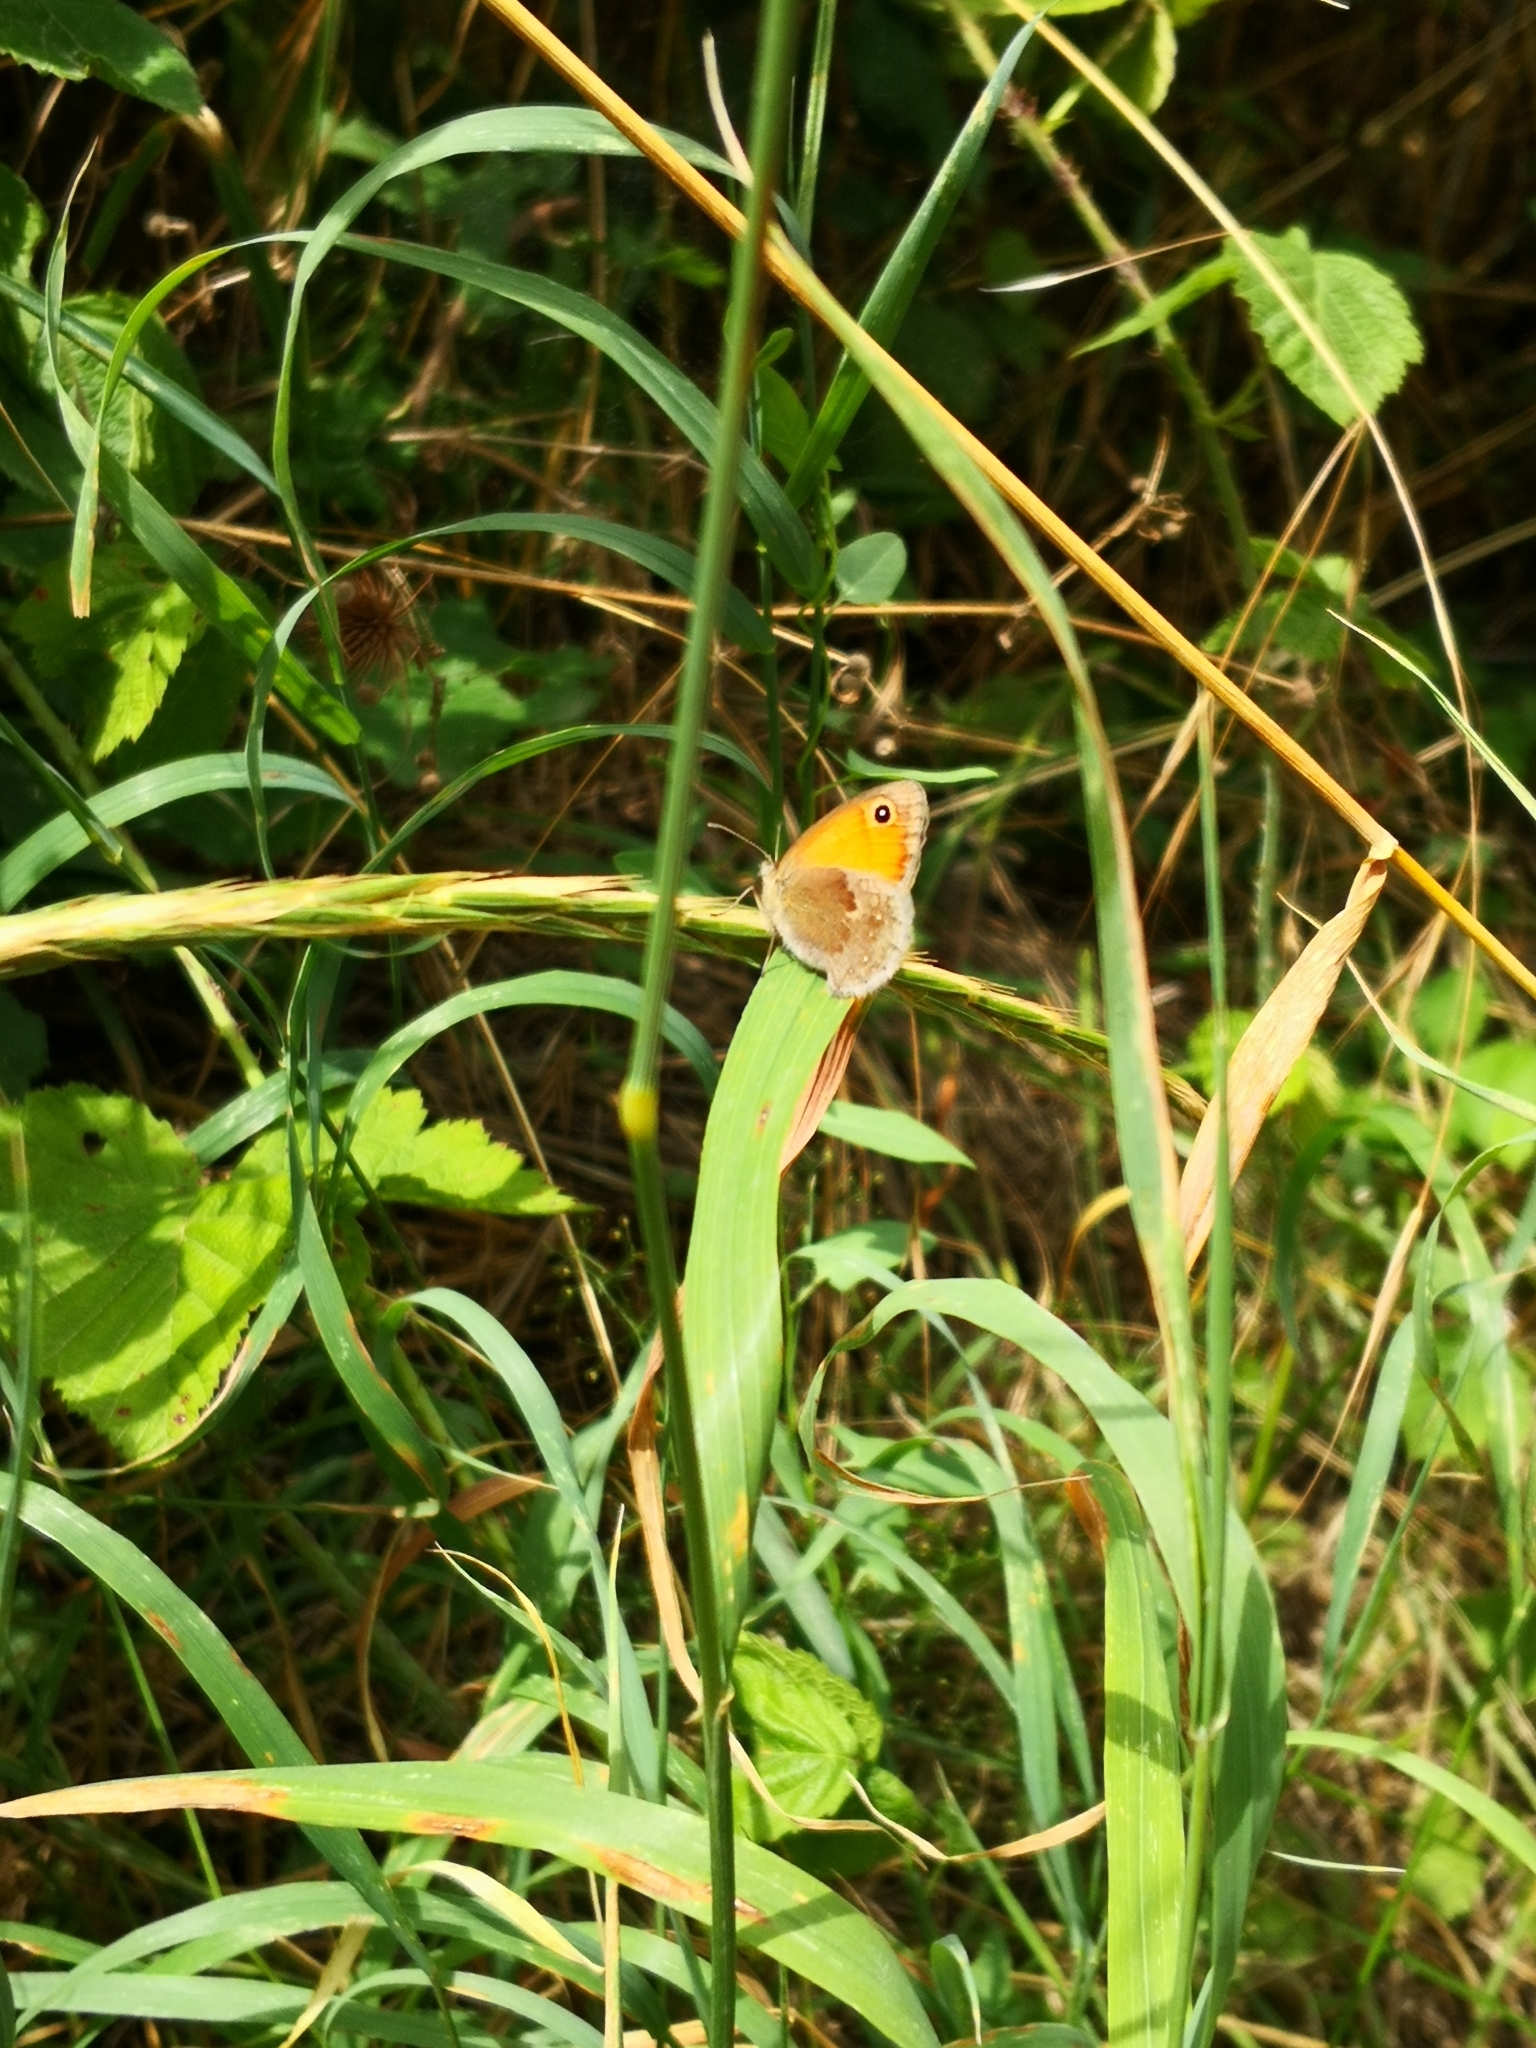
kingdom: Animalia
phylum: Arthropoda
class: Insecta
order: Lepidoptera
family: Nymphalidae
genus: Coenonympha
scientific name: Coenonympha pamphilus
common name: Small heath
